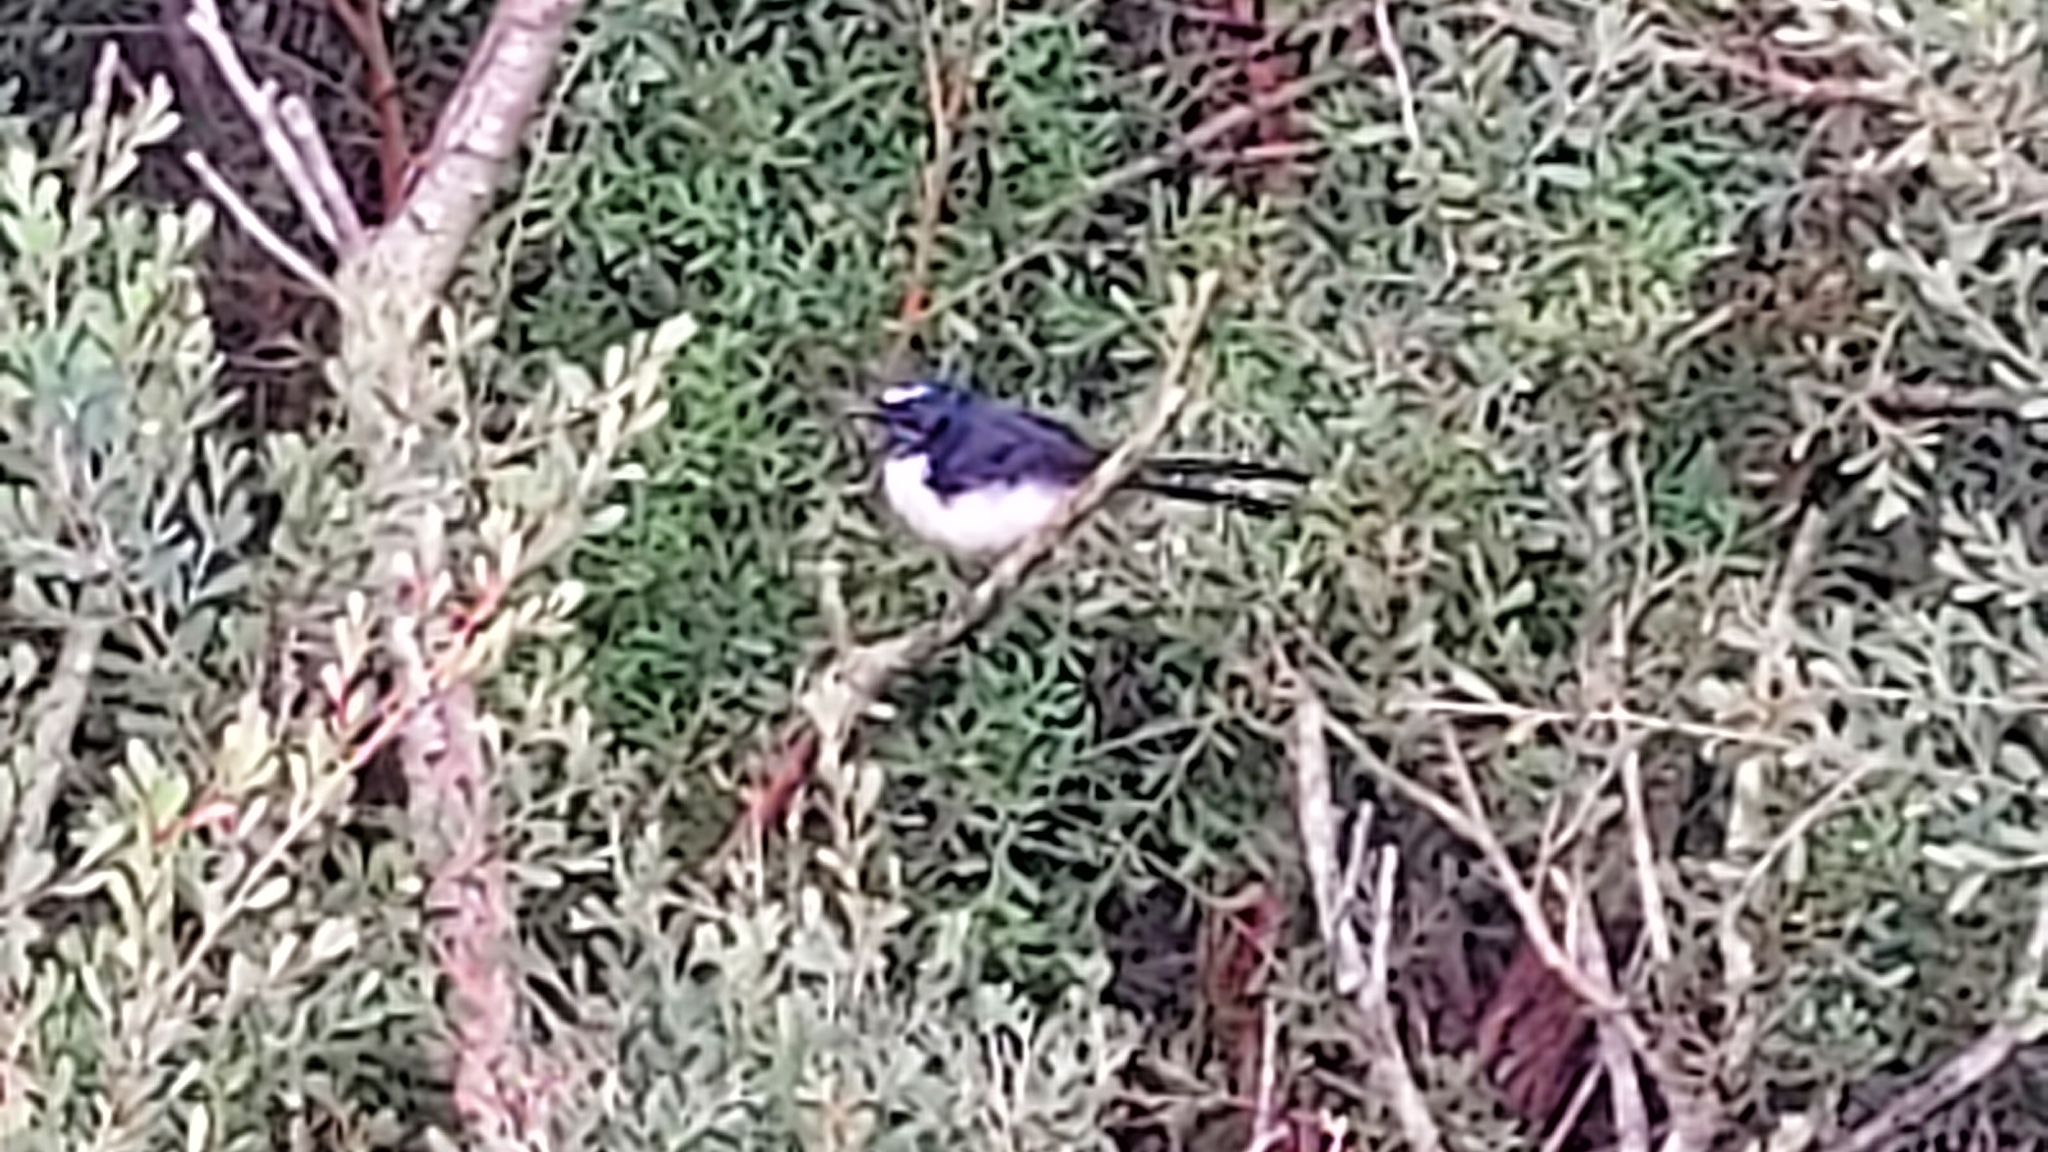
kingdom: Animalia
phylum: Chordata
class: Aves
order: Passeriformes
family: Rhipiduridae
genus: Rhipidura
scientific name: Rhipidura leucophrys
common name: Willie wagtail
